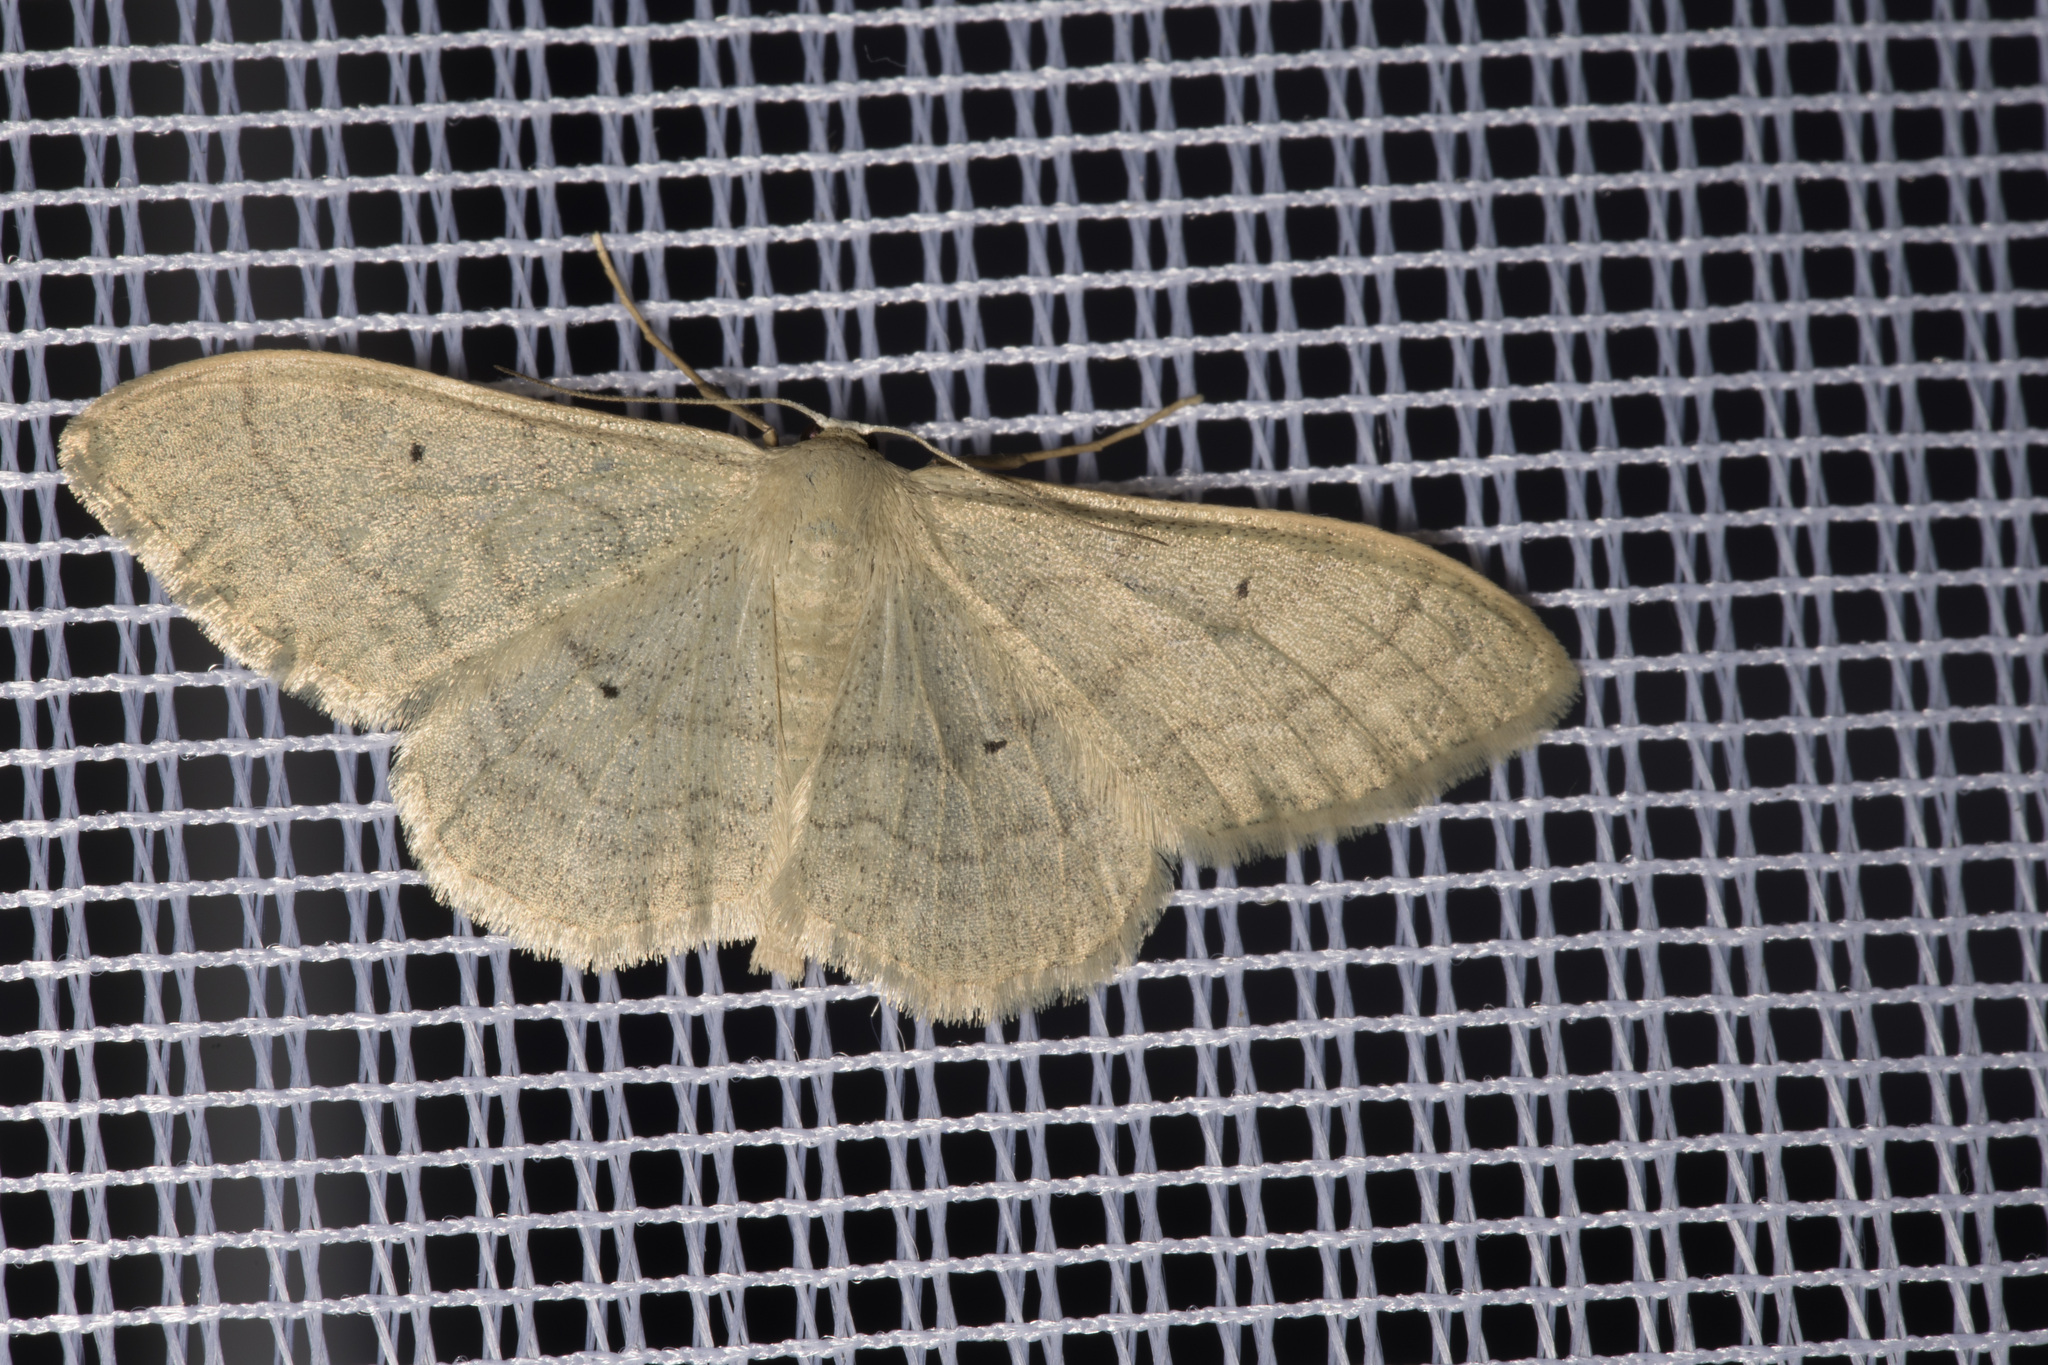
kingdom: Animalia
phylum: Arthropoda
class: Insecta
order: Lepidoptera
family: Geometridae
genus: Idaea
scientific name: Idaea straminata
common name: Plain wave
